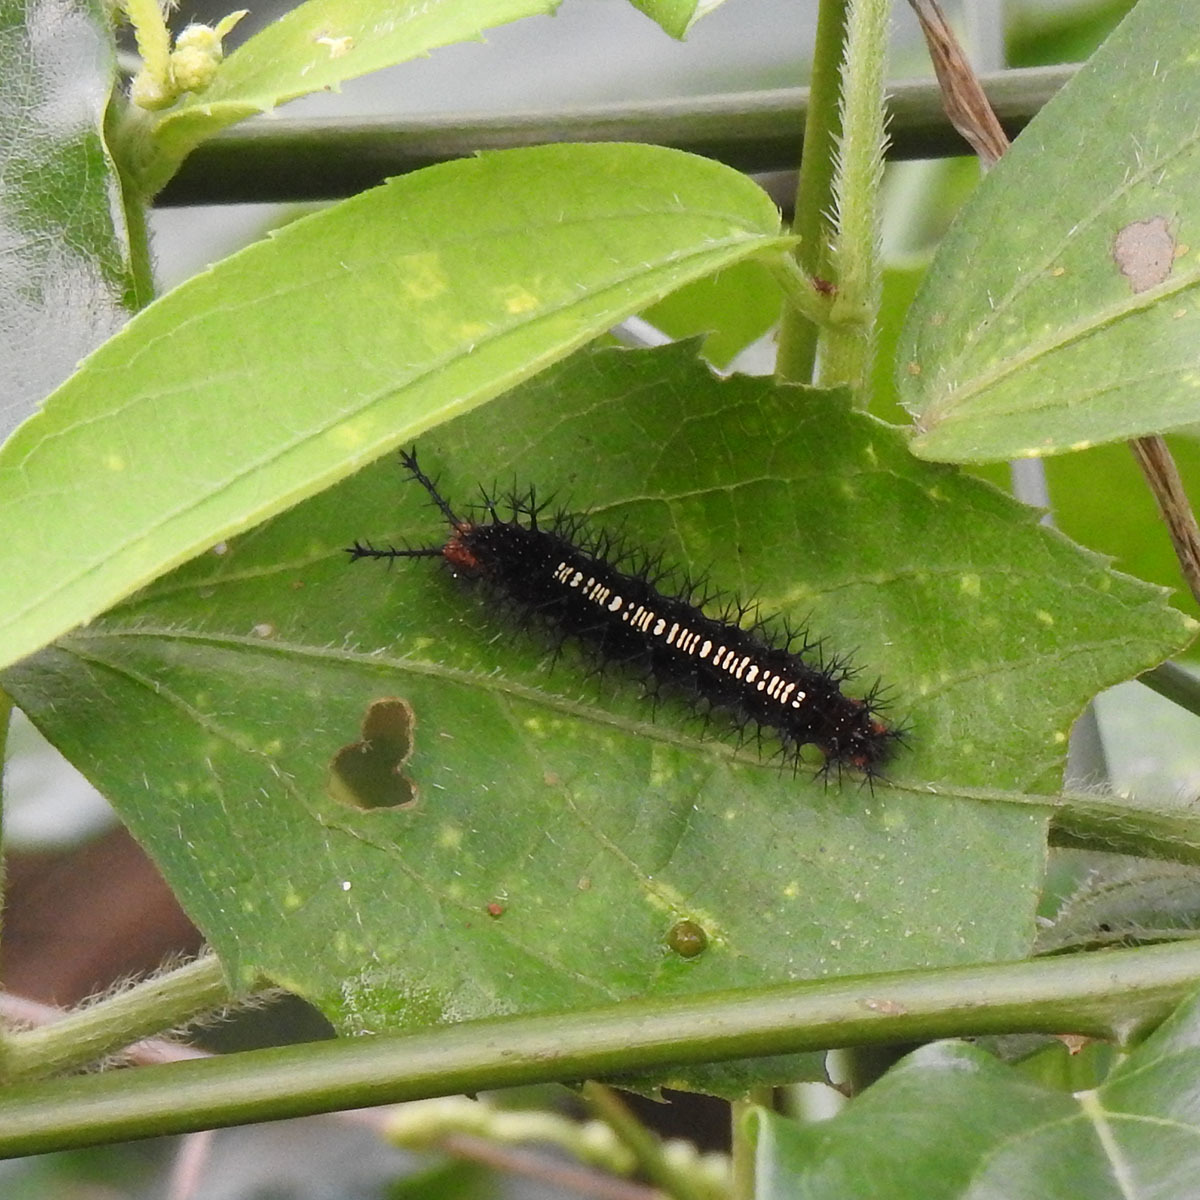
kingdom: Animalia
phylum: Arthropoda
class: Insecta
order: Lepidoptera
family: Nymphalidae
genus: Ariadne
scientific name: Ariadne ariadne
